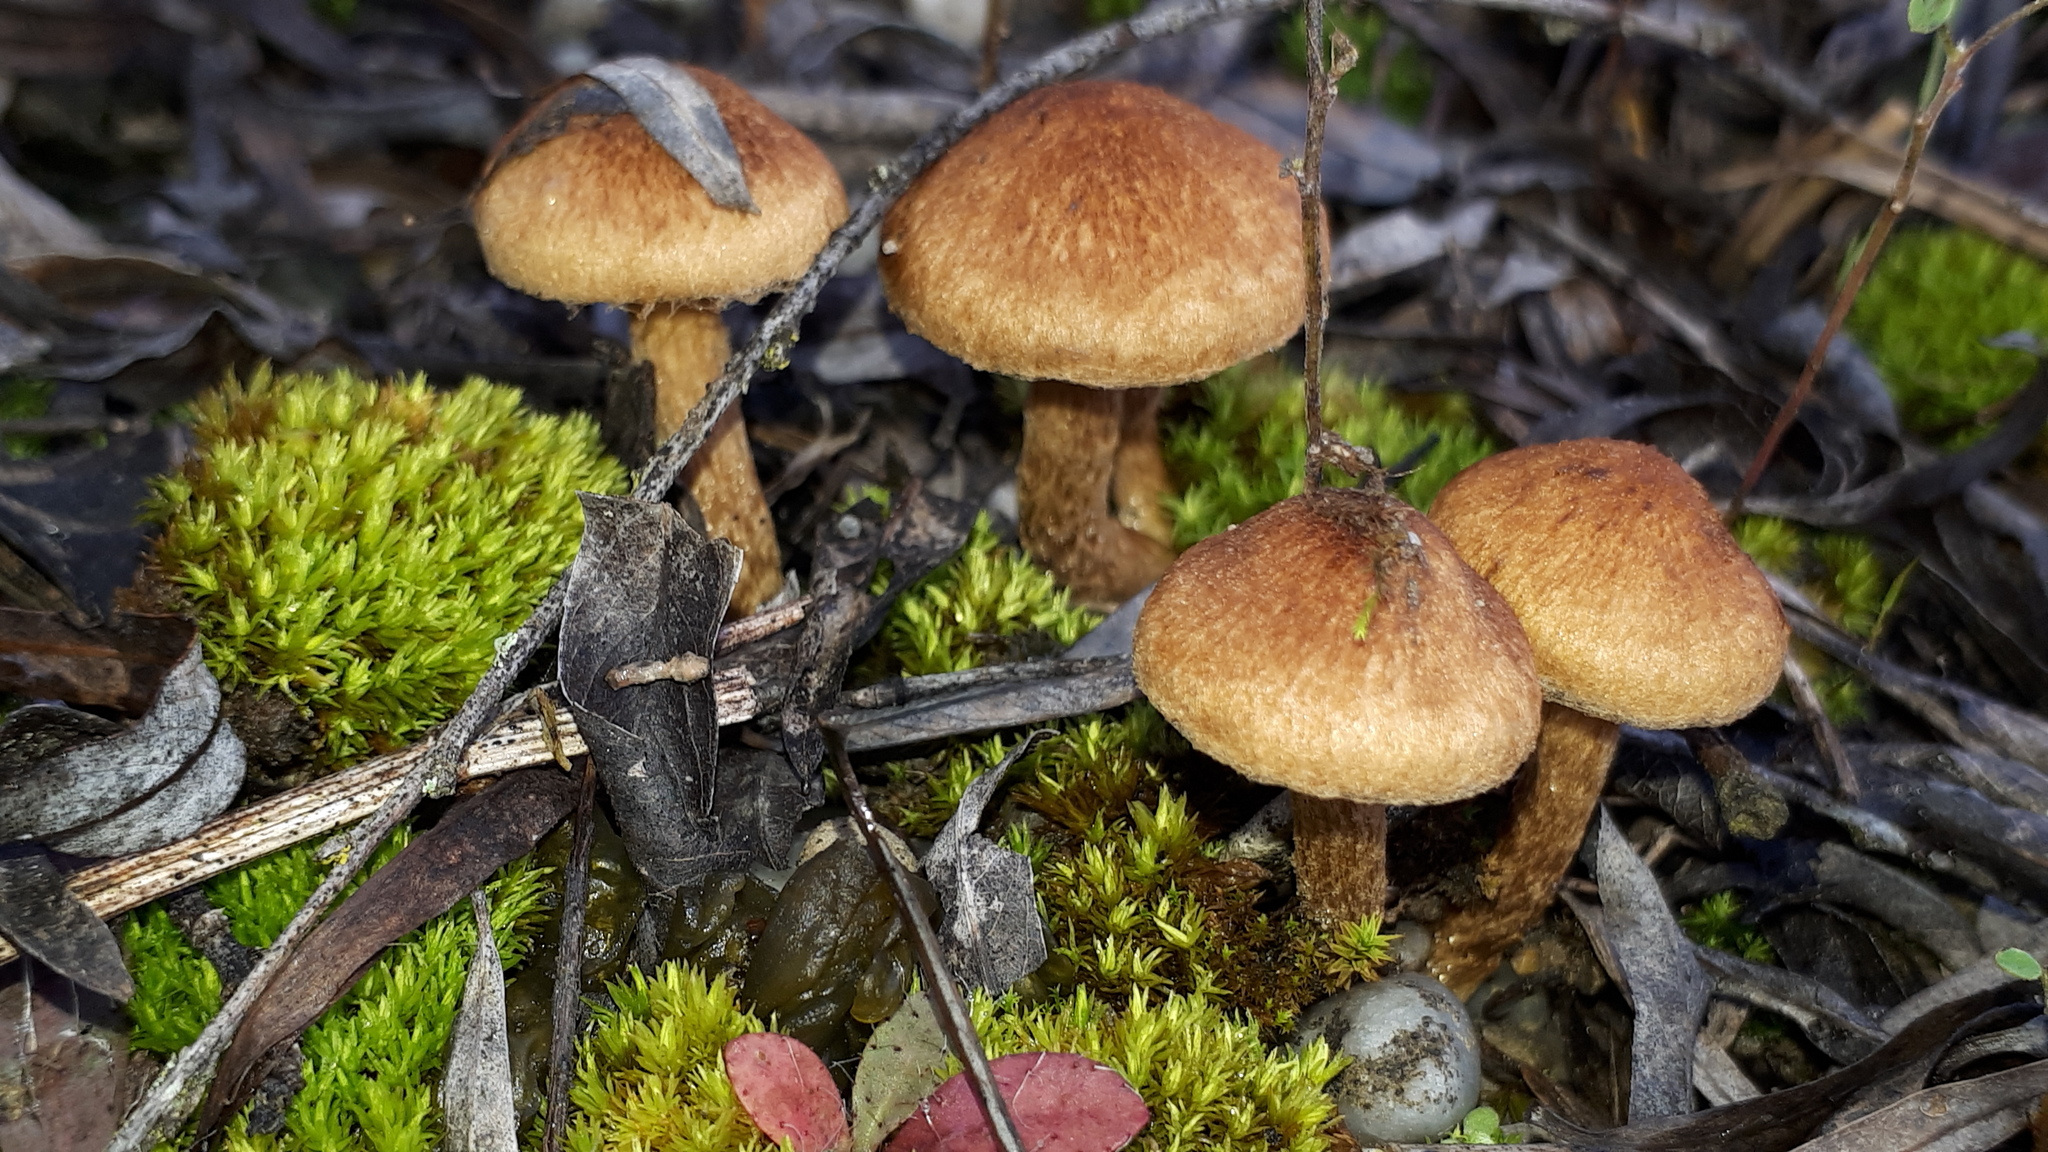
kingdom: Fungi
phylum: Basidiomycota
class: Agaricomycetes
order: Agaricales
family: Psathyrellaceae
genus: Lacrymaria
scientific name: Lacrymaria lacrymabunda
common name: Weeping widow
